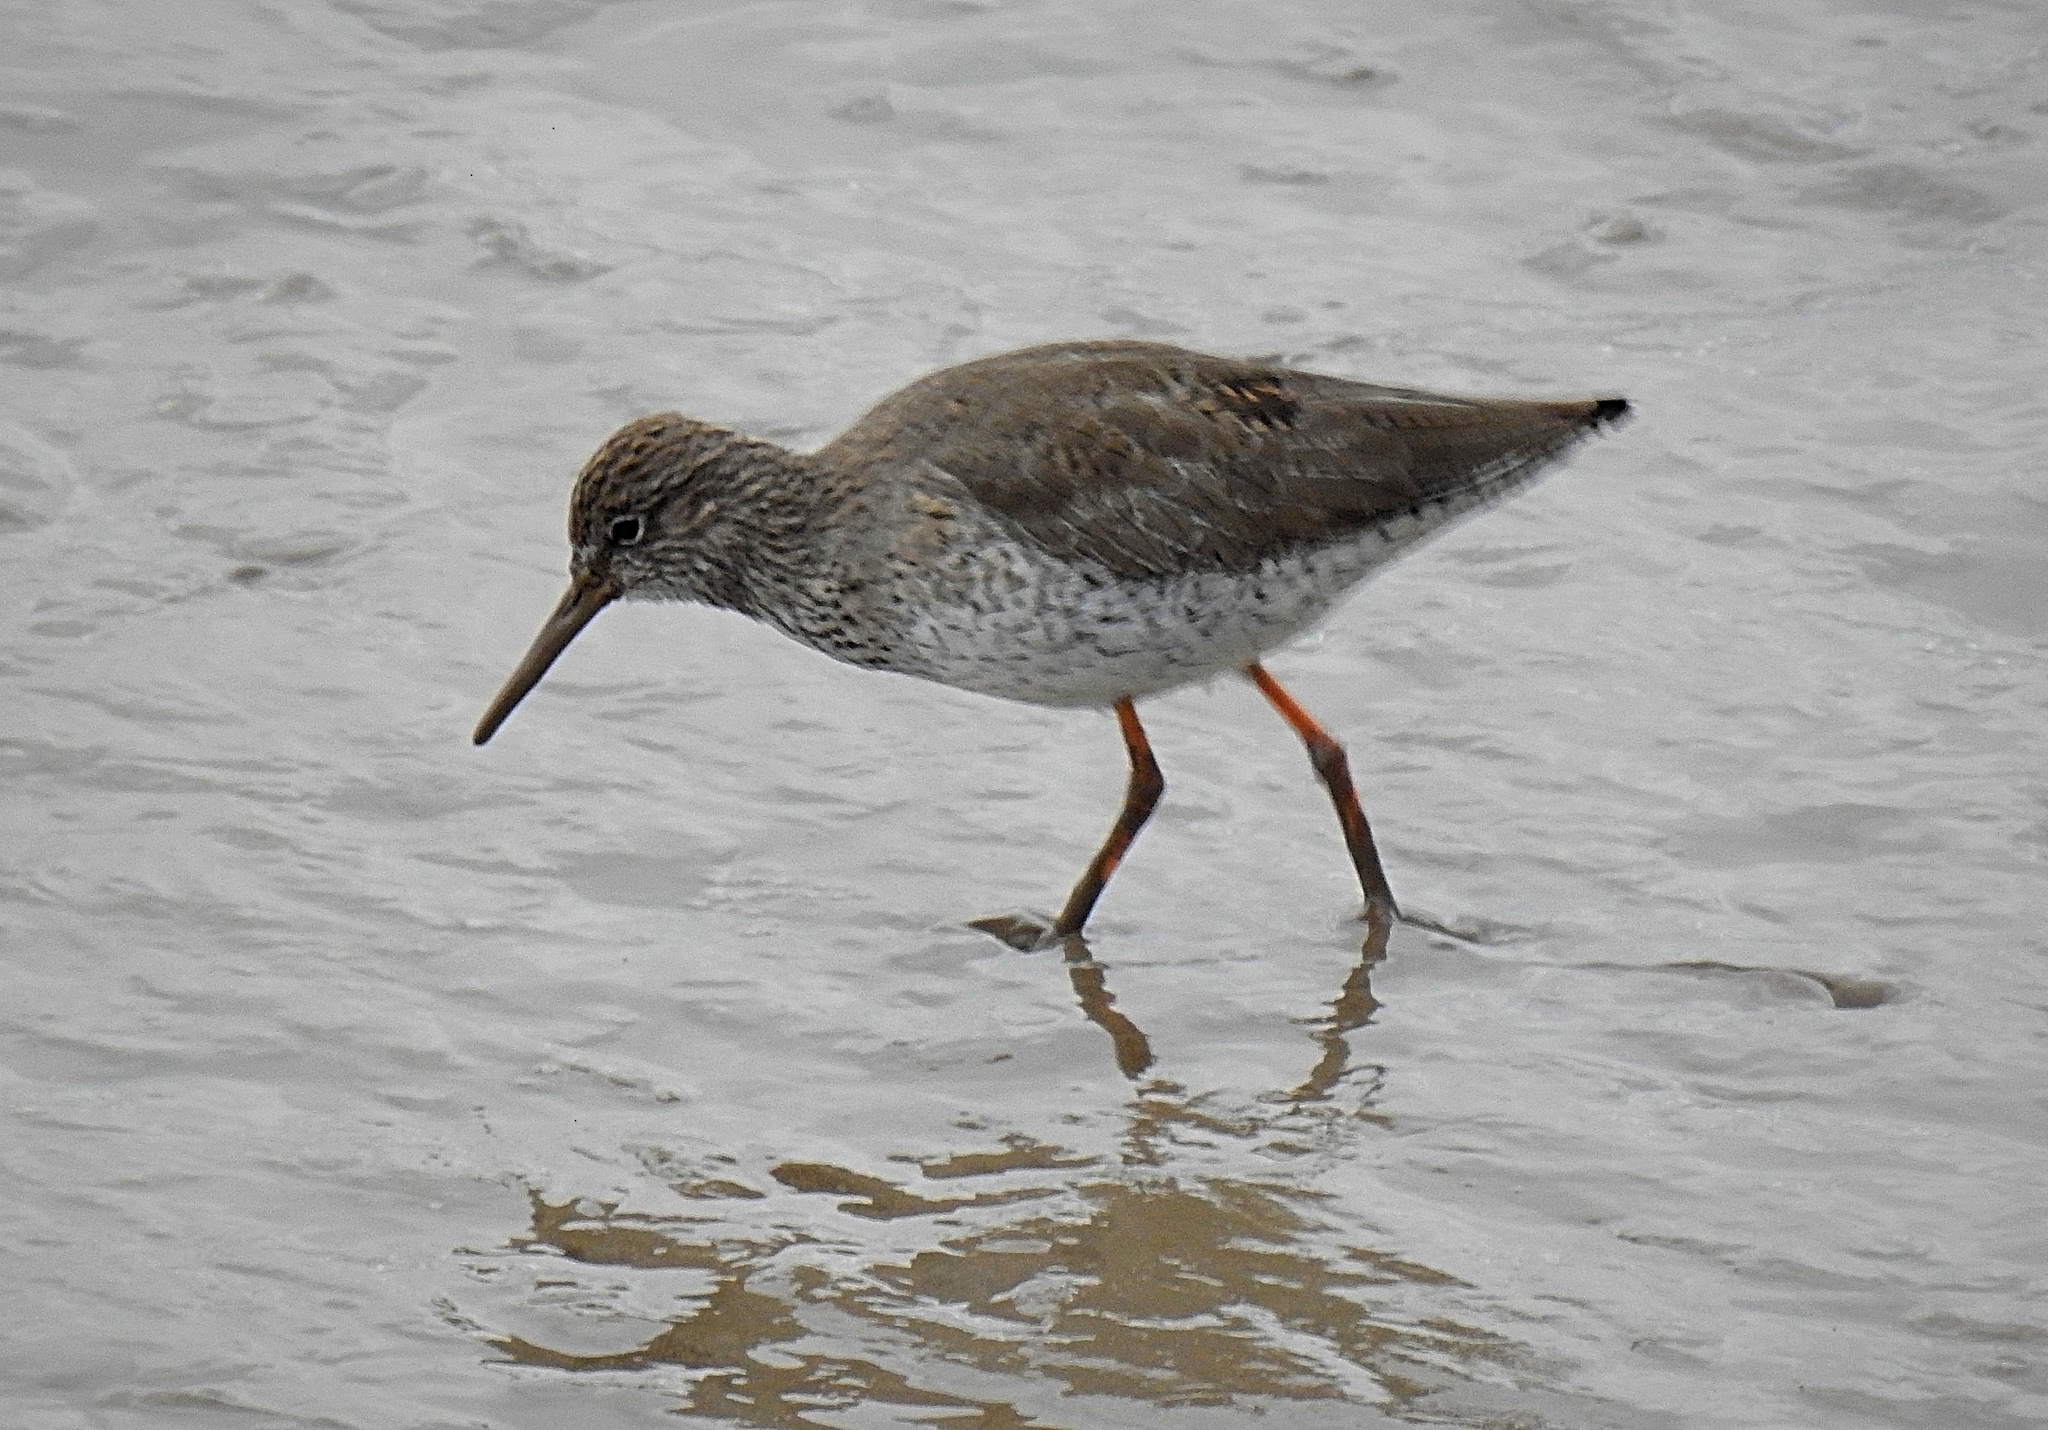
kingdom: Animalia
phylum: Chordata
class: Aves
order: Charadriiformes
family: Scolopacidae
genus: Tringa
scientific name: Tringa totanus
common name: Common redshank
